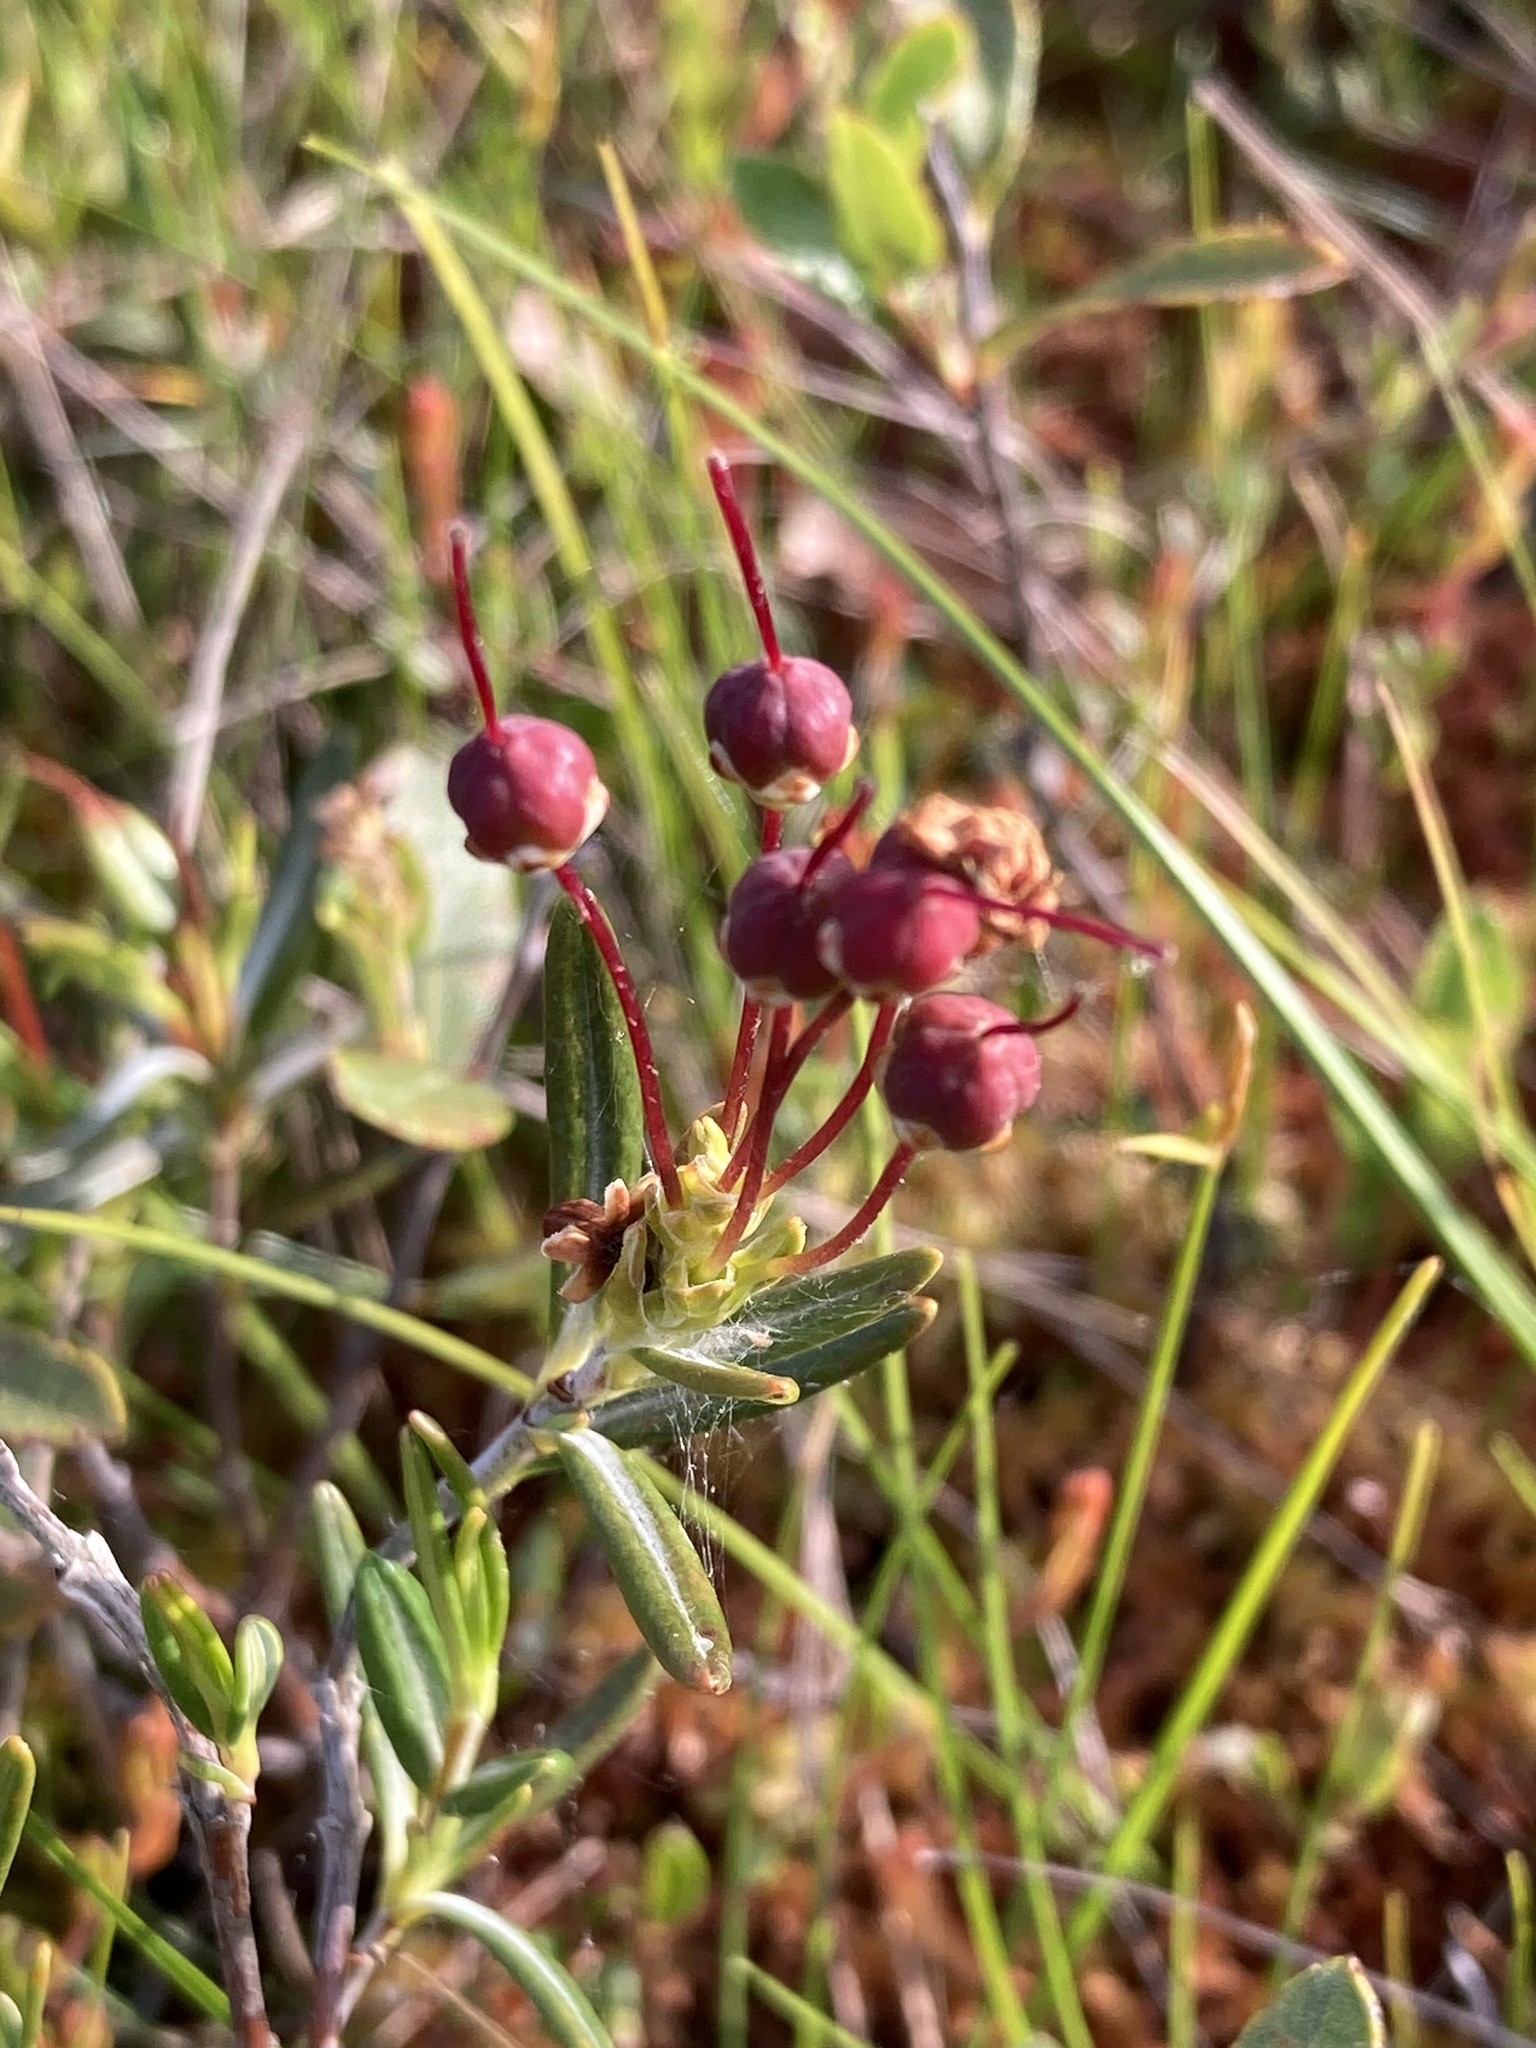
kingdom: Plantae
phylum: Tracheophyta
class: Magnoliopsida
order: Ericales
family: Ericaceae
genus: Kalmia
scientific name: Kalmia polifolia
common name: Bog-laurel
